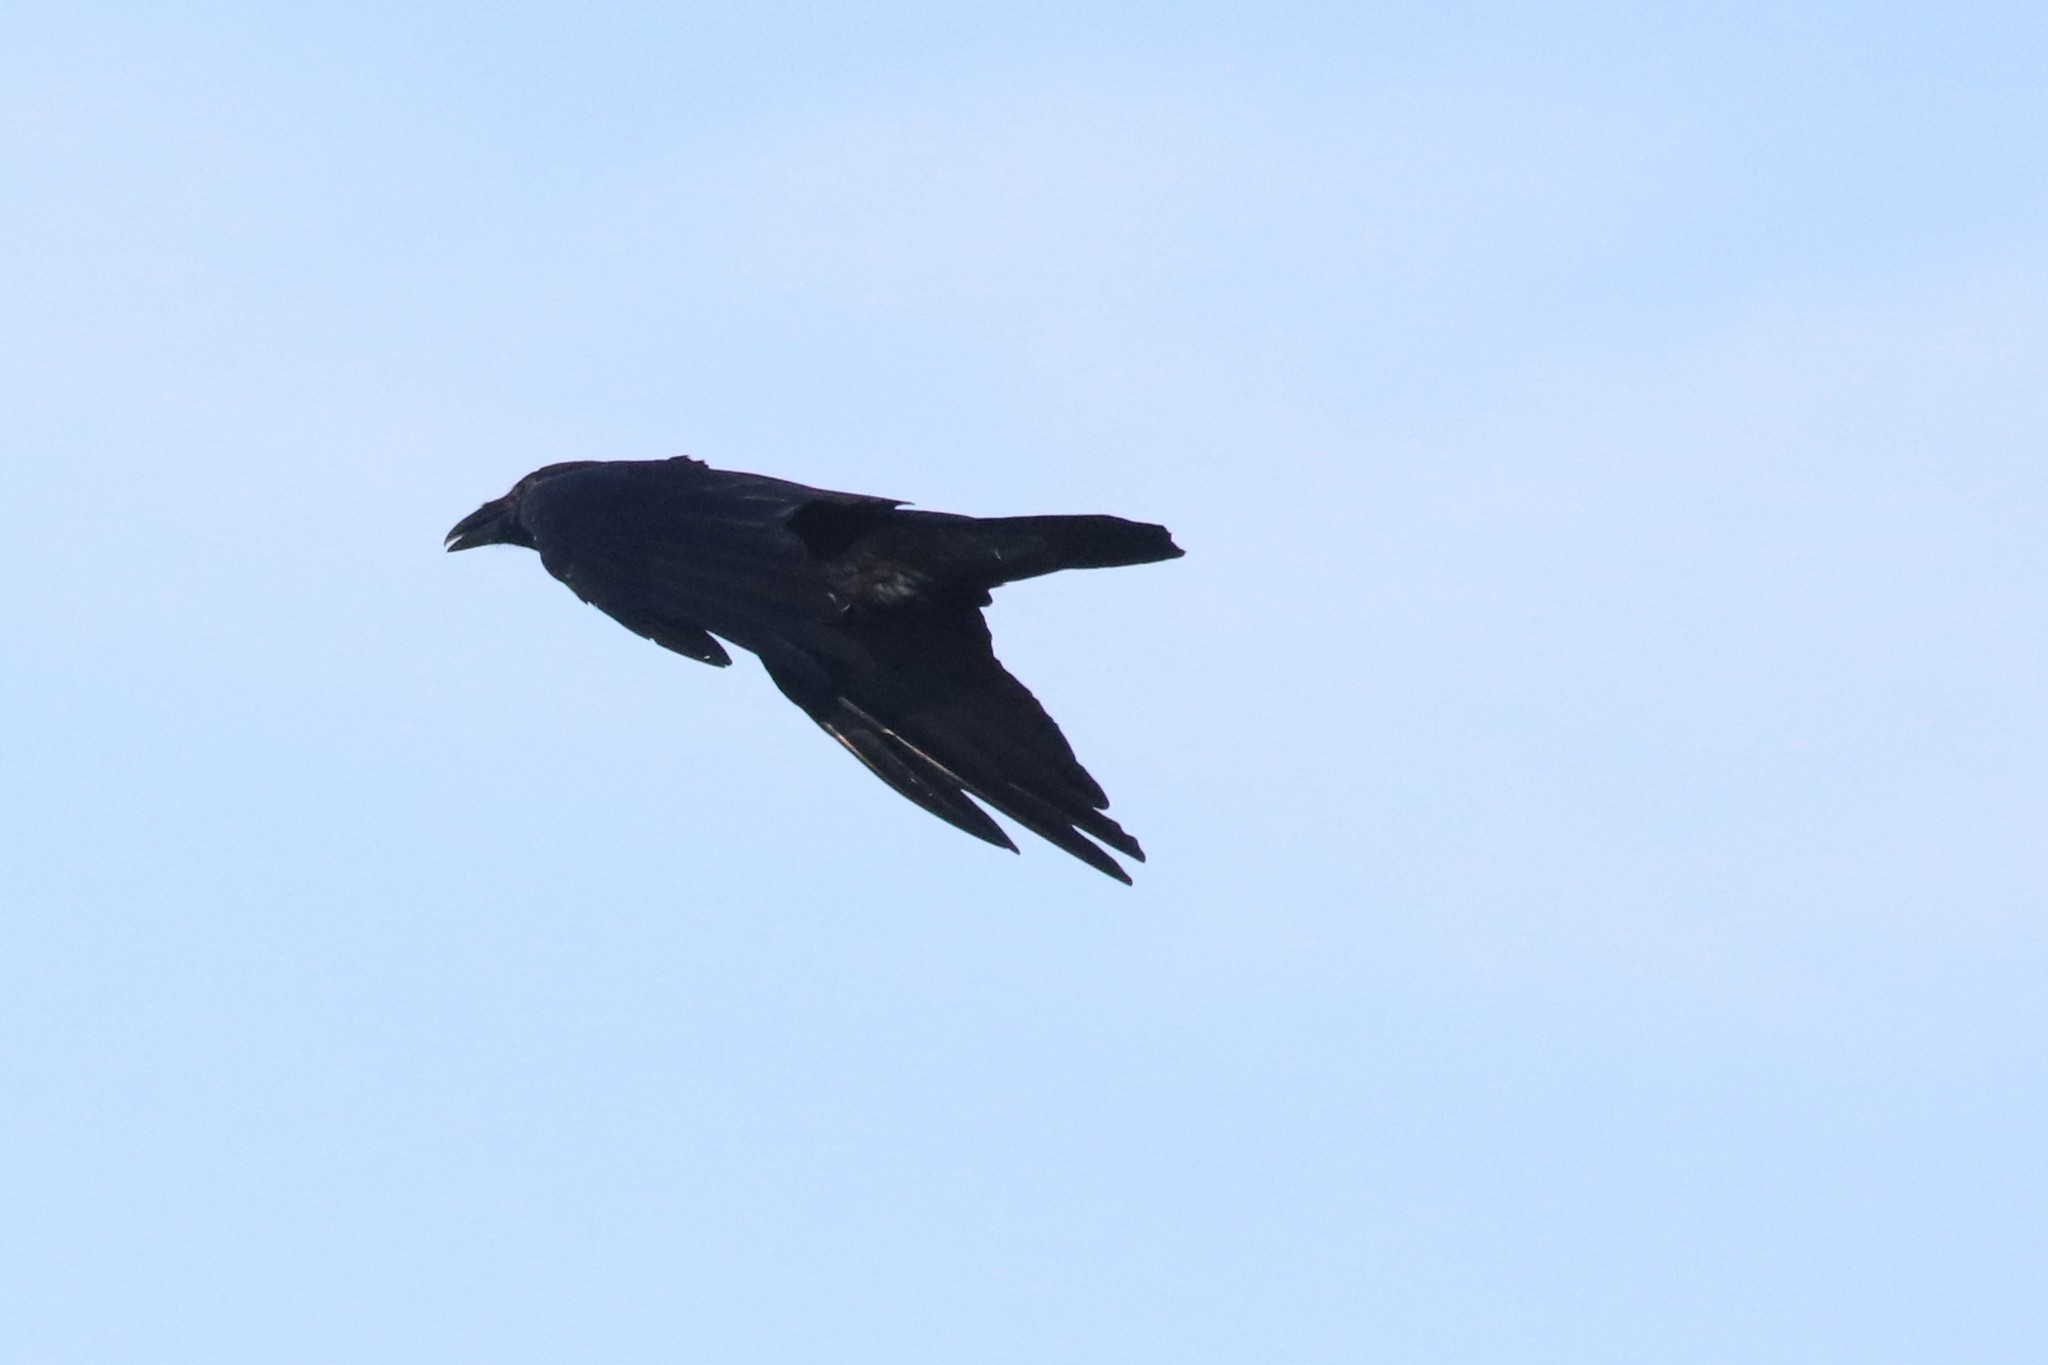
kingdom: Animalia
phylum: Chordata
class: Aves
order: Passeriformes
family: Corvidae
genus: Corvus
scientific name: Corvus corax
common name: Common raven
